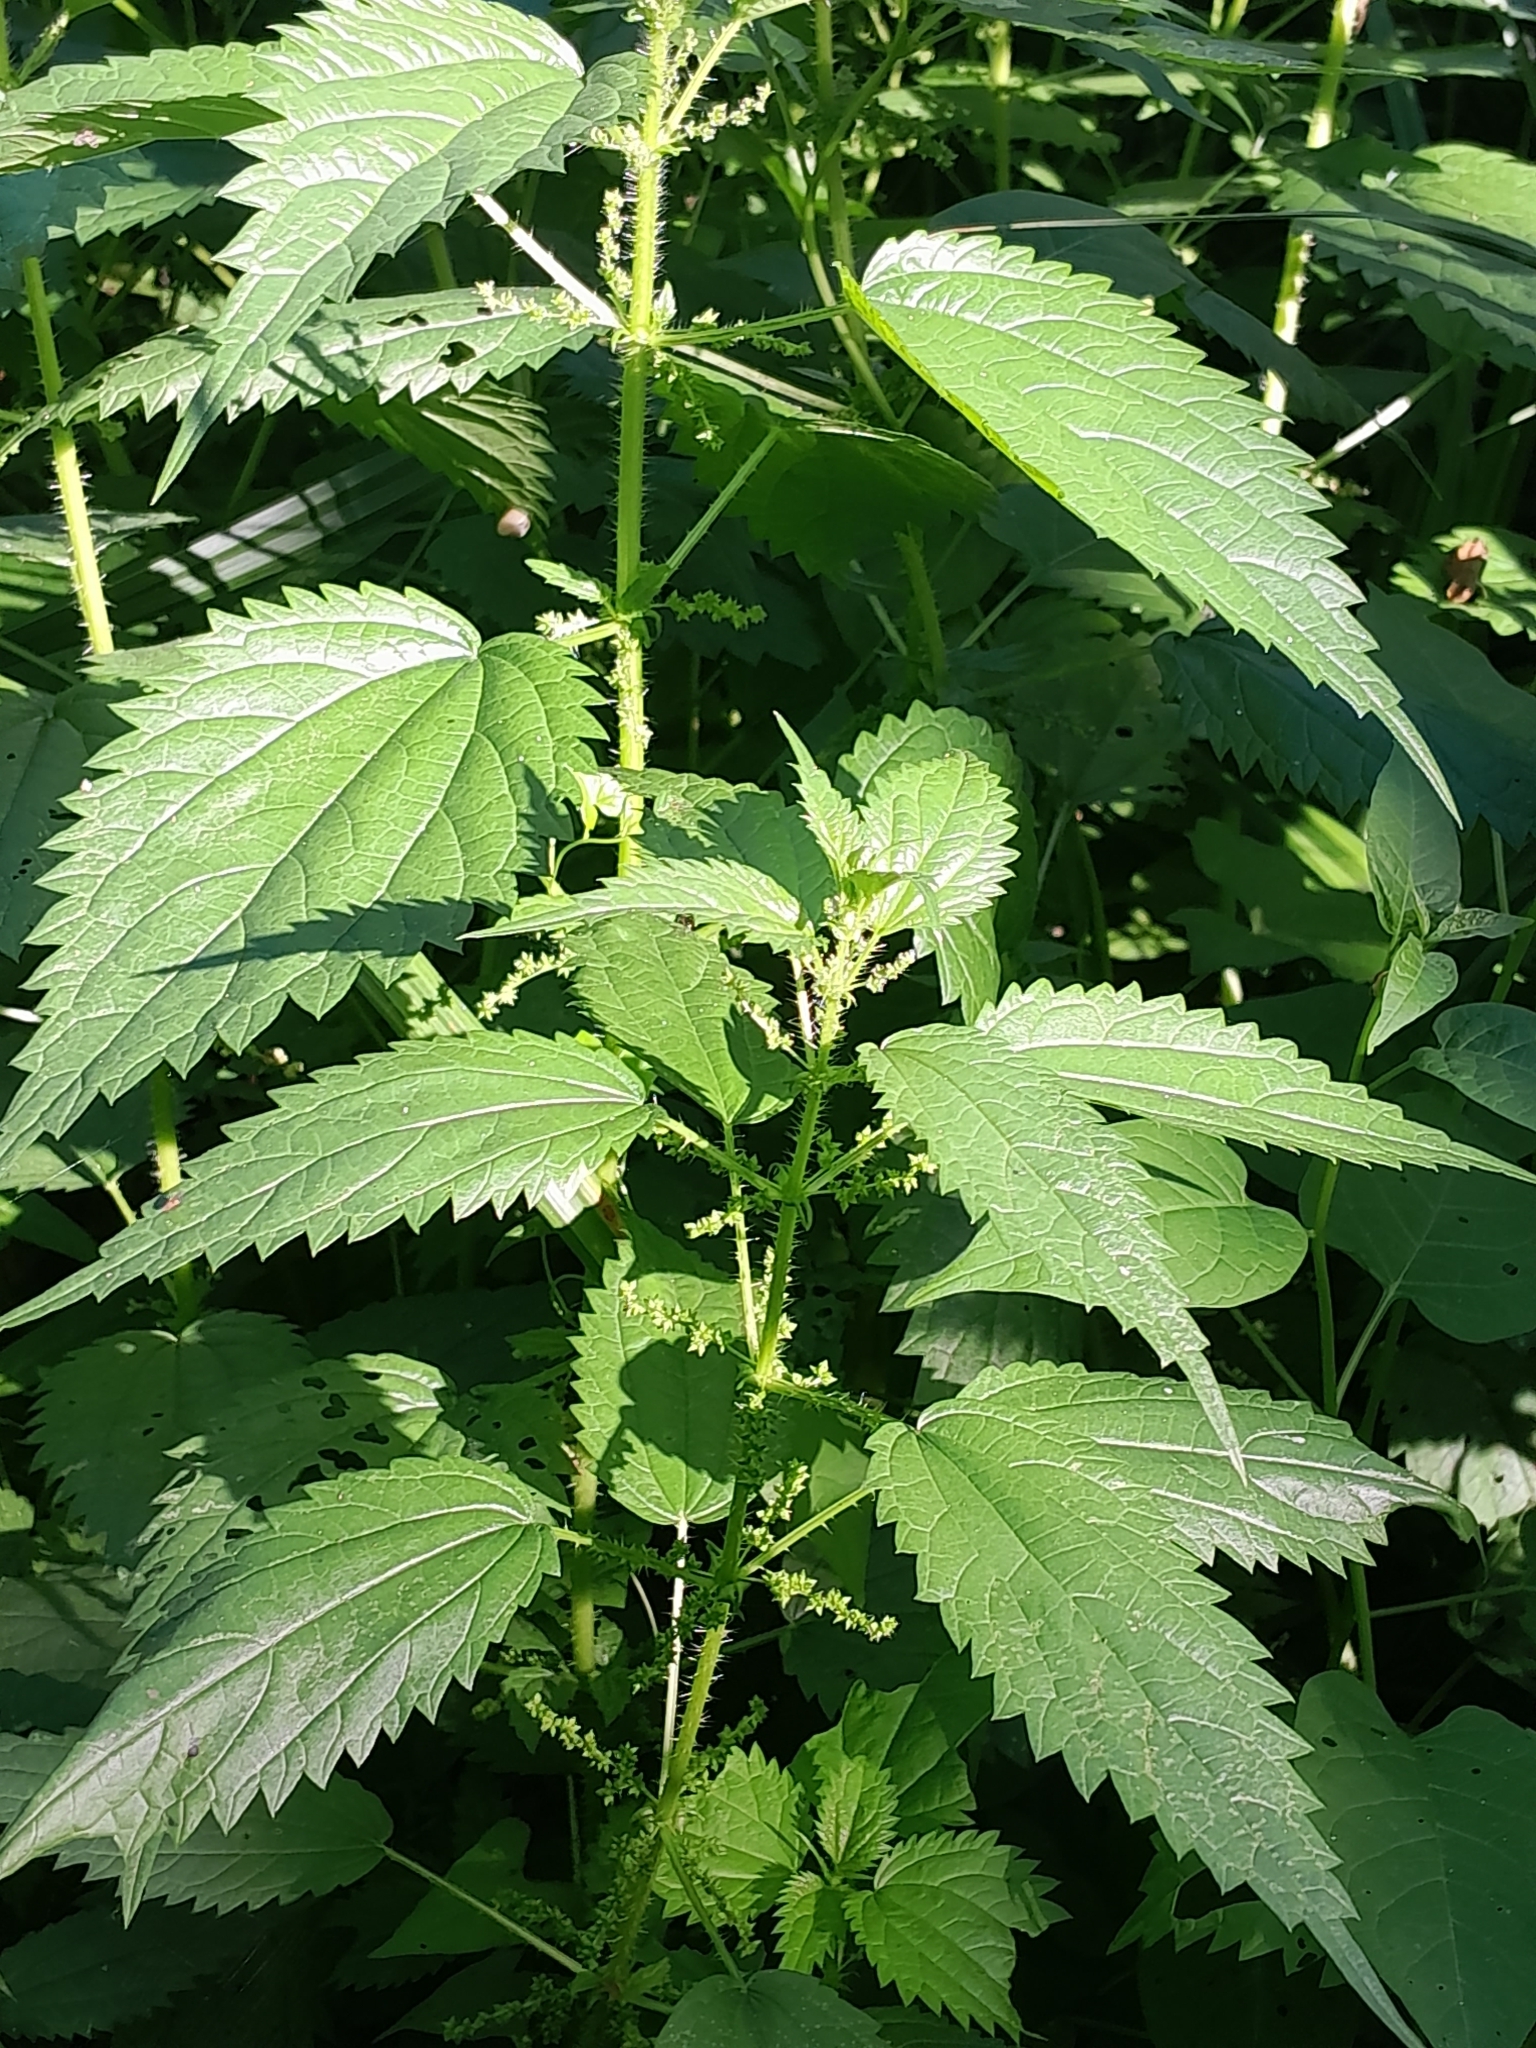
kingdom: Plantae
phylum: Tracheophyta
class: Magnoliopsida
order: Rosales
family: Urticaceae
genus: Urtica
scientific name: Urtica dioica
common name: Common nettle
